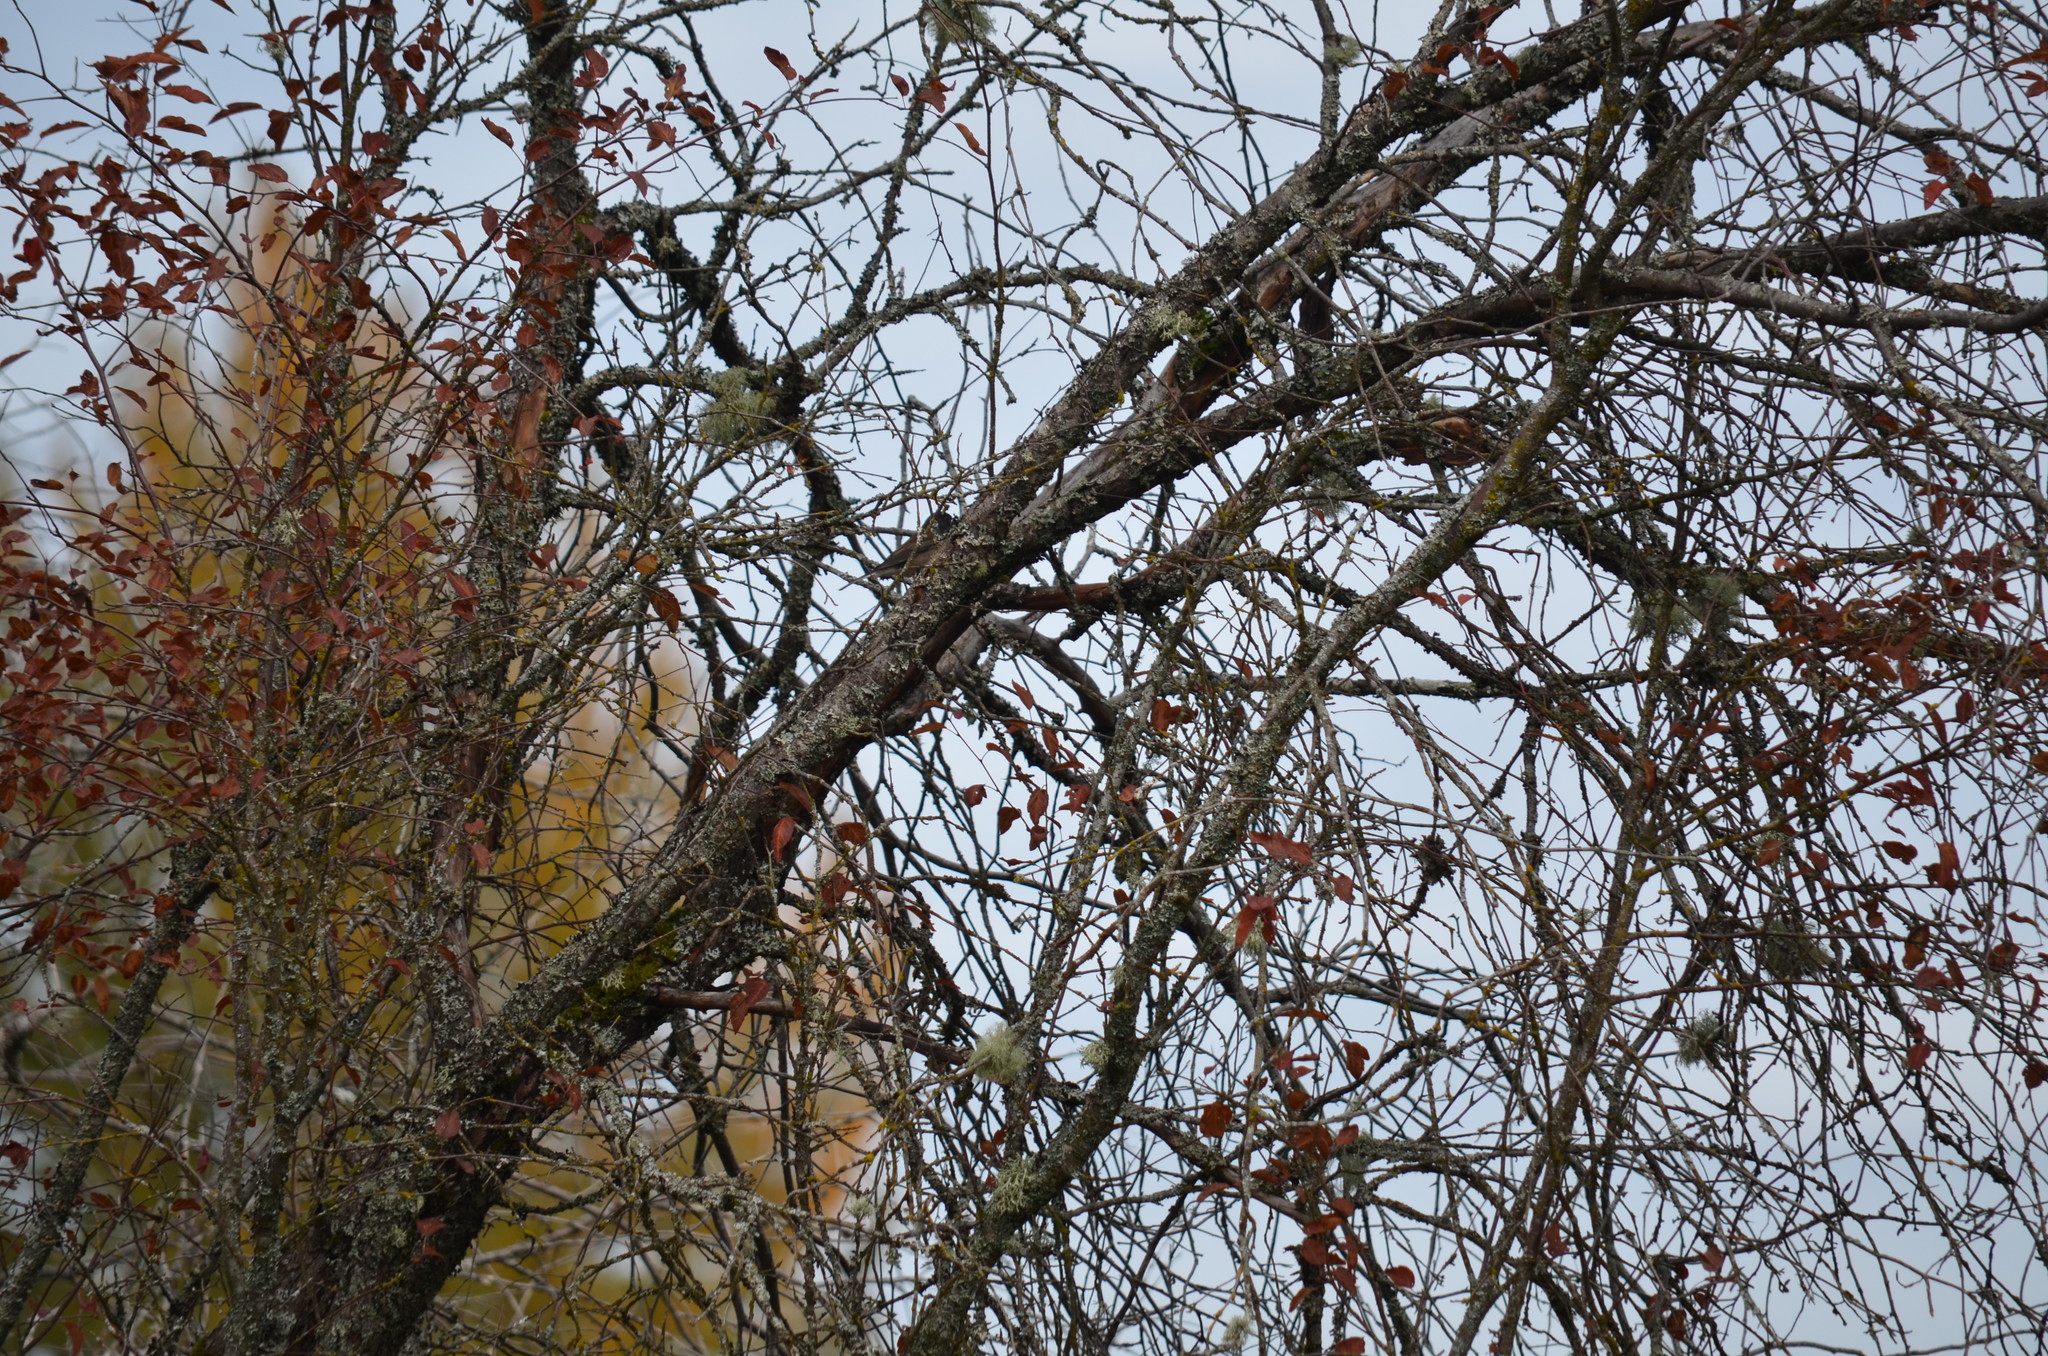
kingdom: Animalia
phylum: Chordata
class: Aves
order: Passeriformes
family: Passerellidae
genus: Junco
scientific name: Junco hyemalis
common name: Dark-eyed junco
